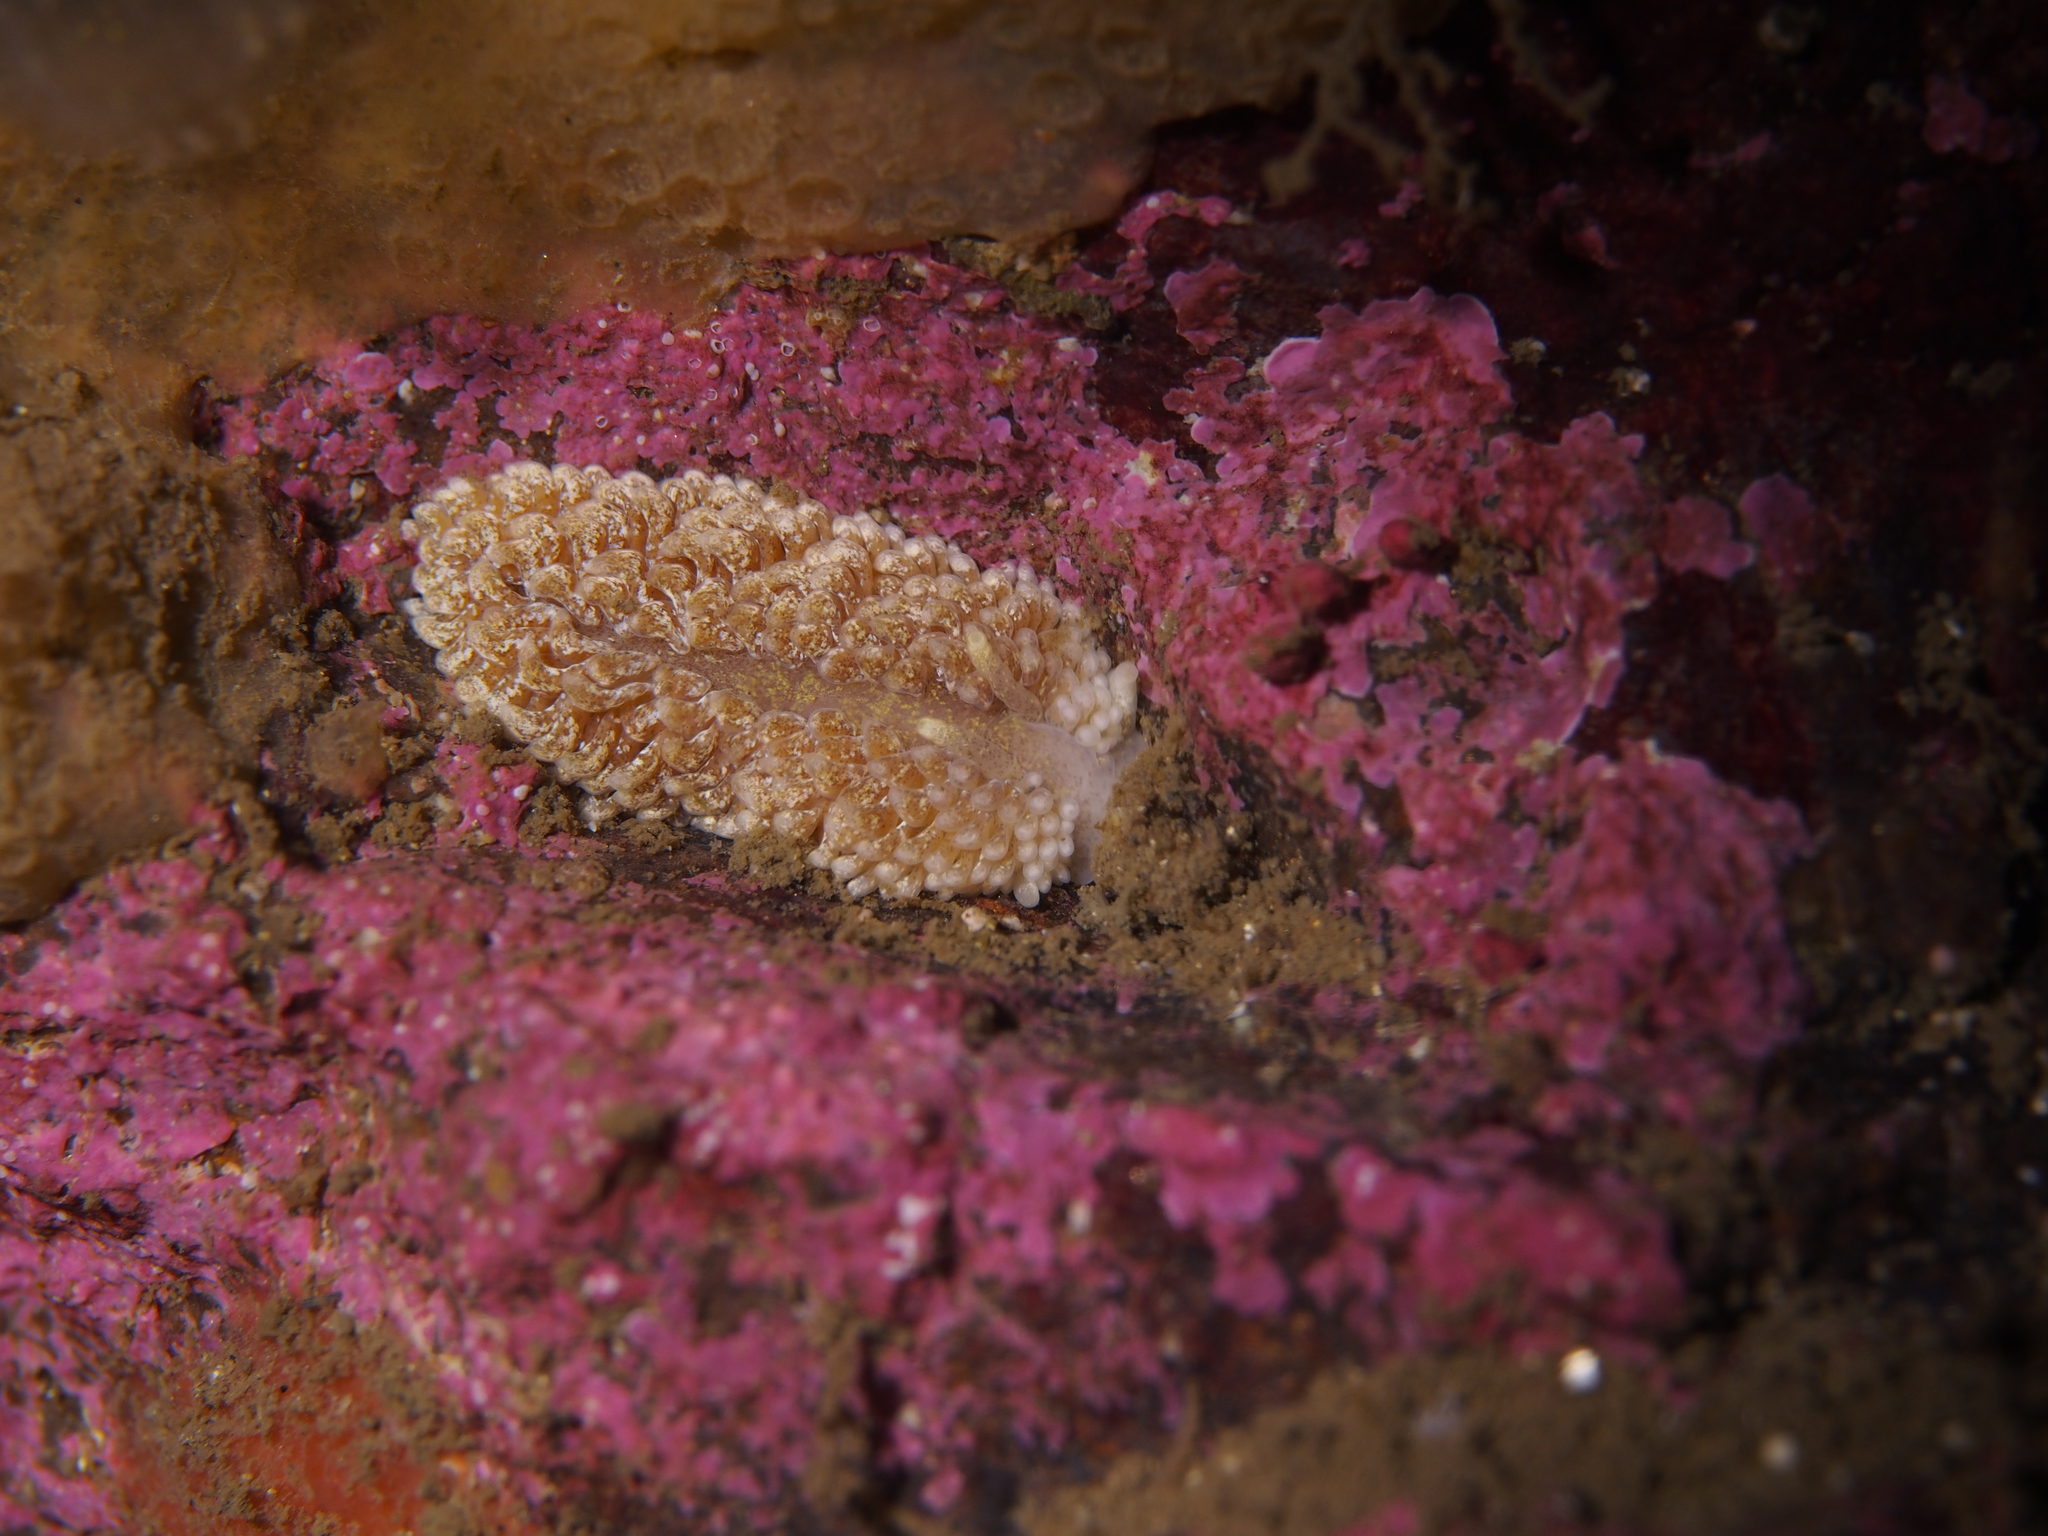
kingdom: Animalia
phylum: Mollusca
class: Gastropoda
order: Nudibranchia
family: Aeolidiidae
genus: Aeolidia
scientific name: Aeolidia papillosa
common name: Common grey sea slug
